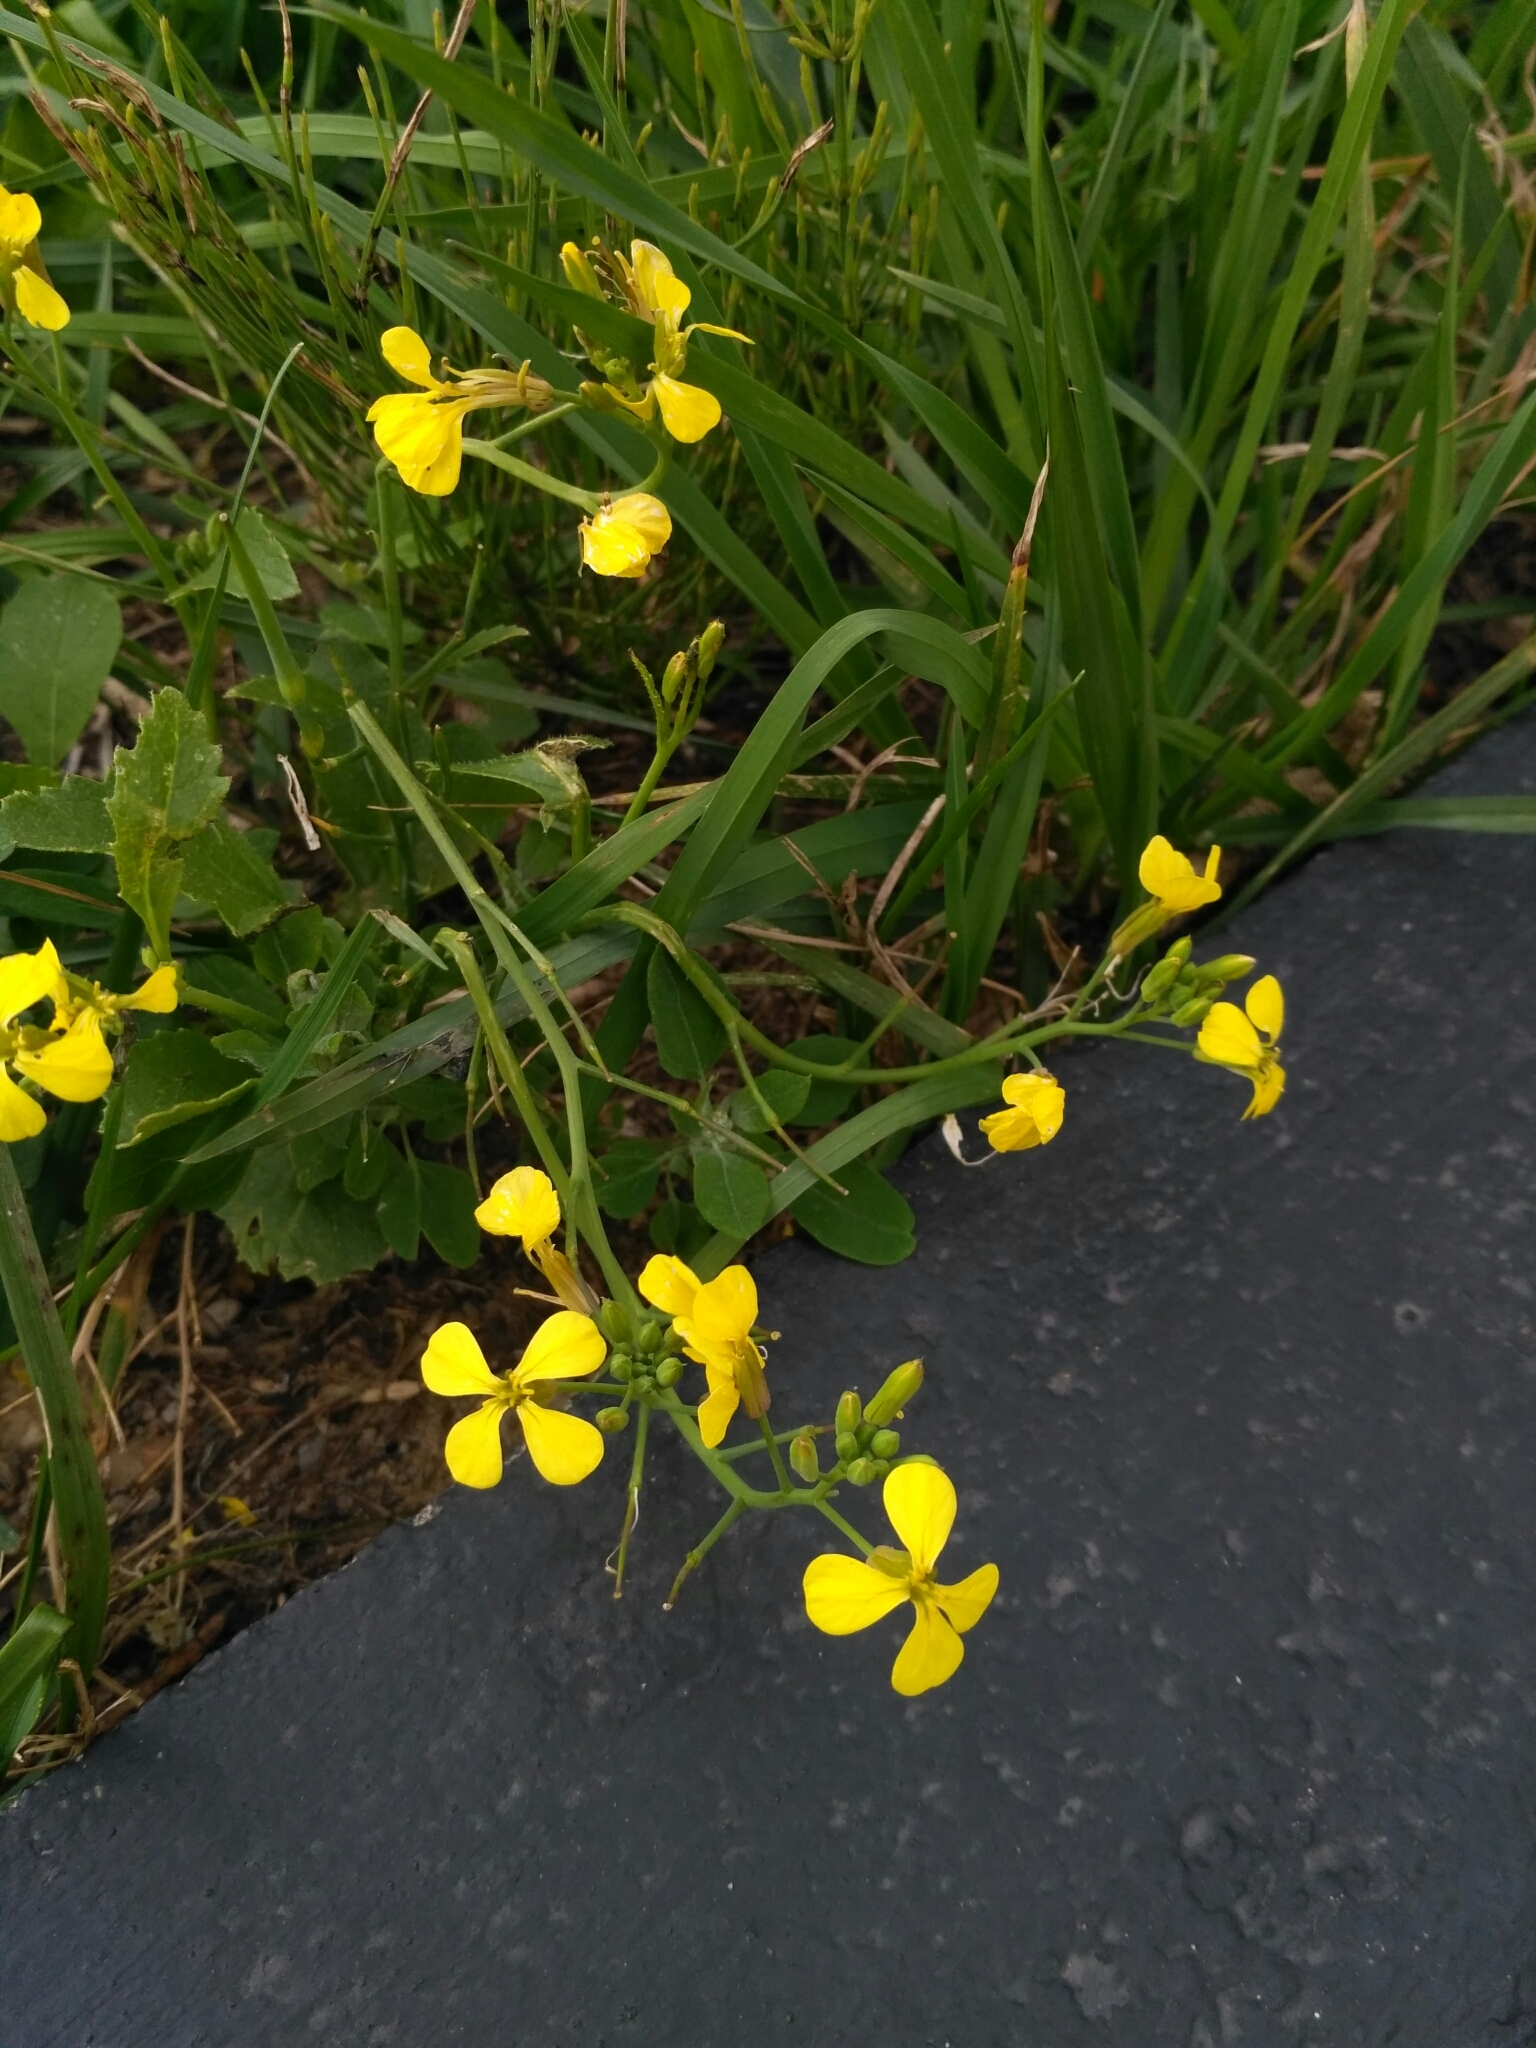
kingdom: Plantae
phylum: Tracheophyta
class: Magnoliopsida
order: Brassicales
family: Brassicaceae
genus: Raphanus
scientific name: Raphanus raphanistrum
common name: Wild radish
